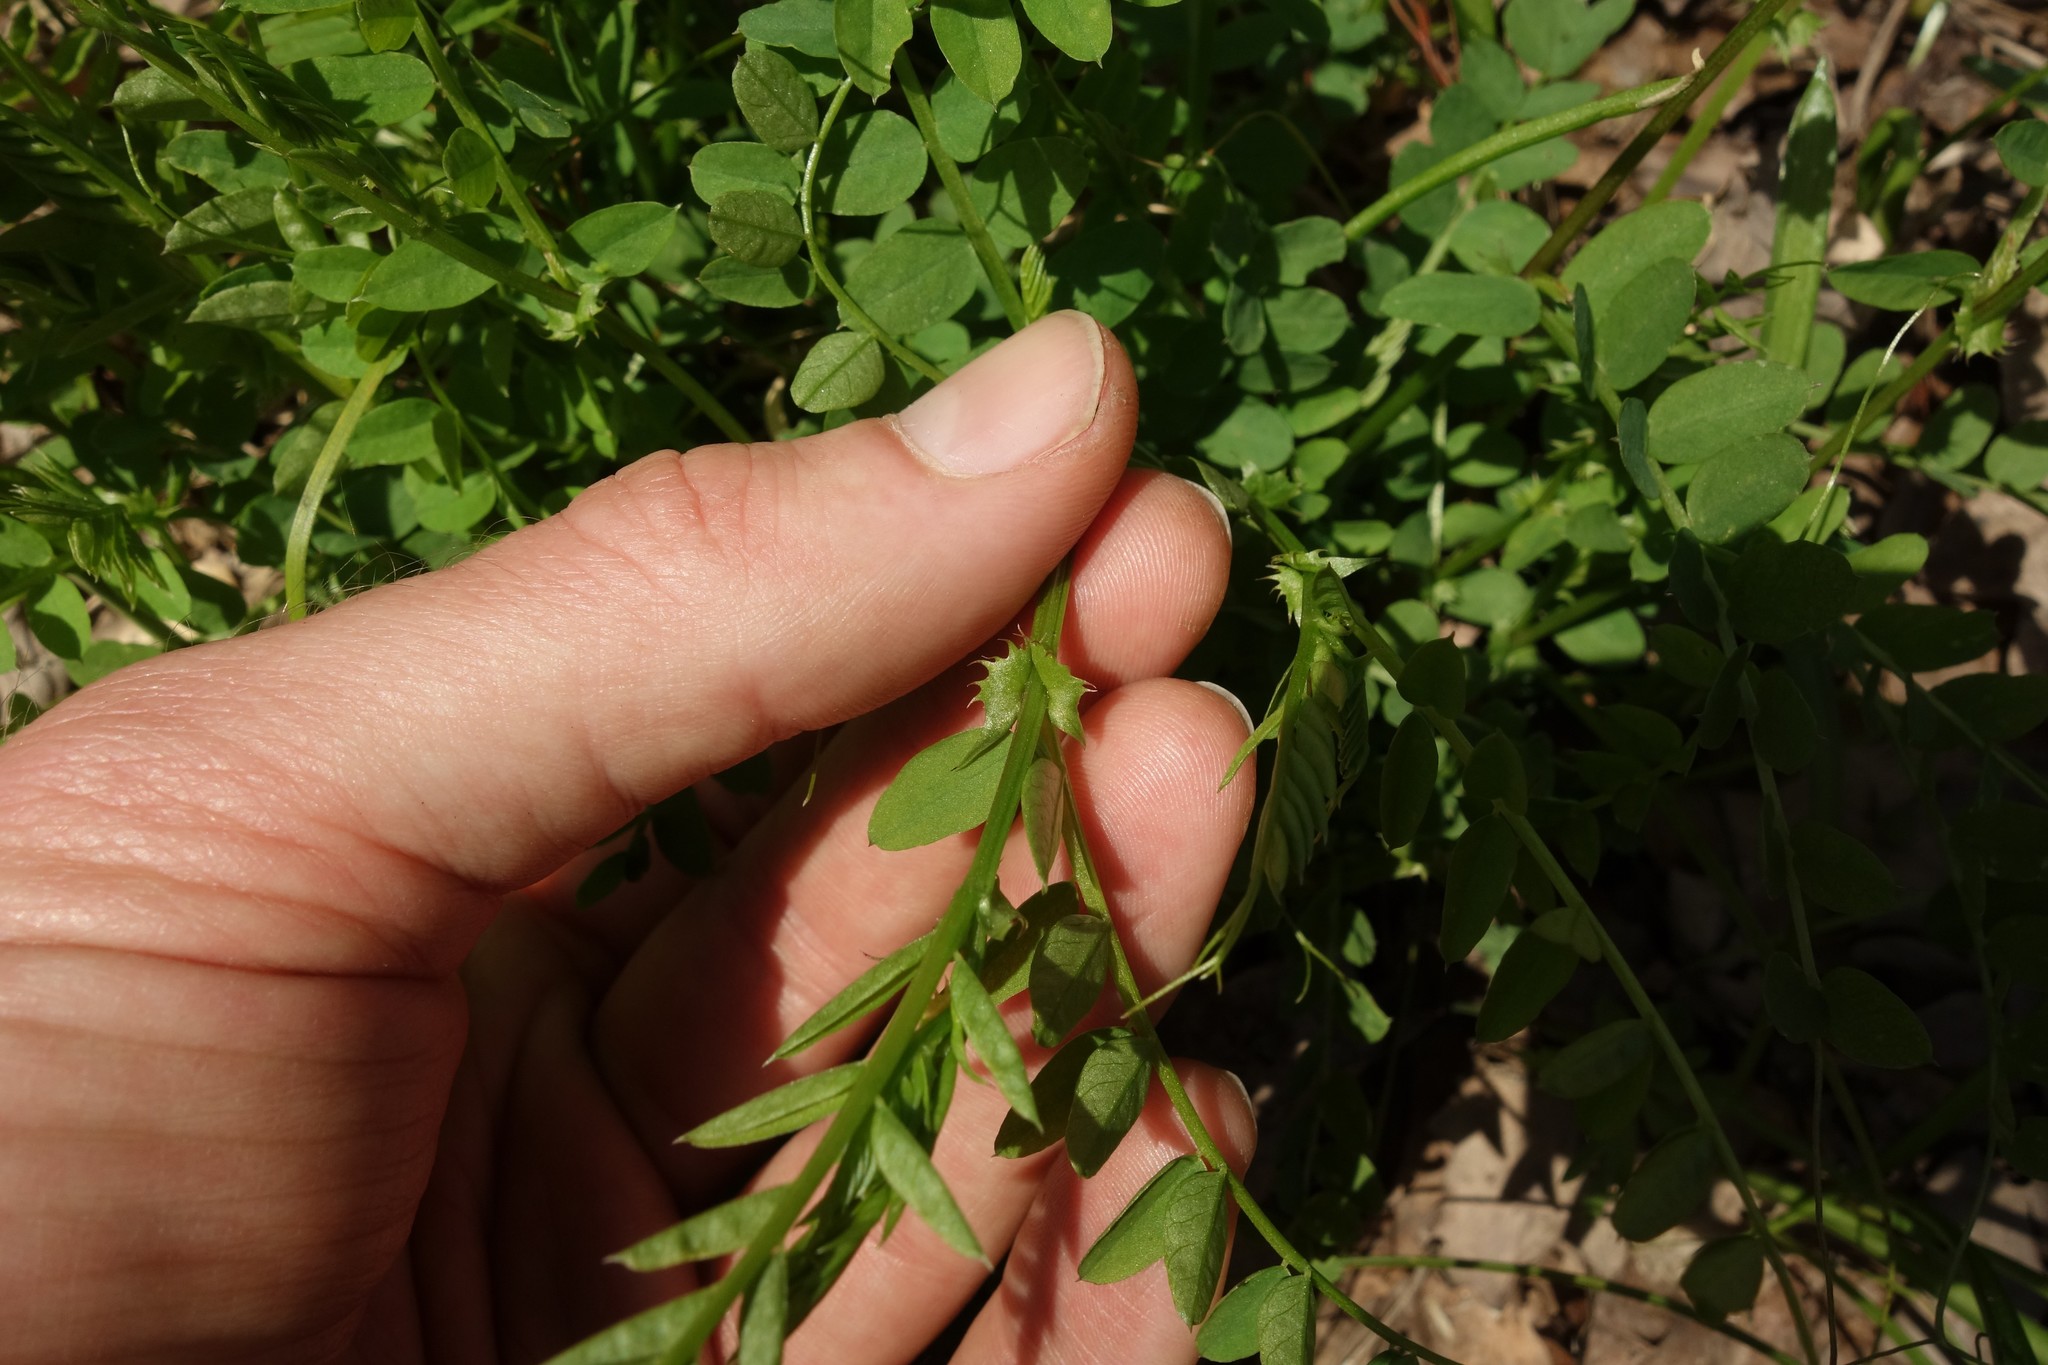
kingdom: Plantae
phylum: Tracheophyta
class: Magnoliopsida
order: Fabales
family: Fabaceae
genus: Vicia
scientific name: Vicia sylvatica
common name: Wood vetch
